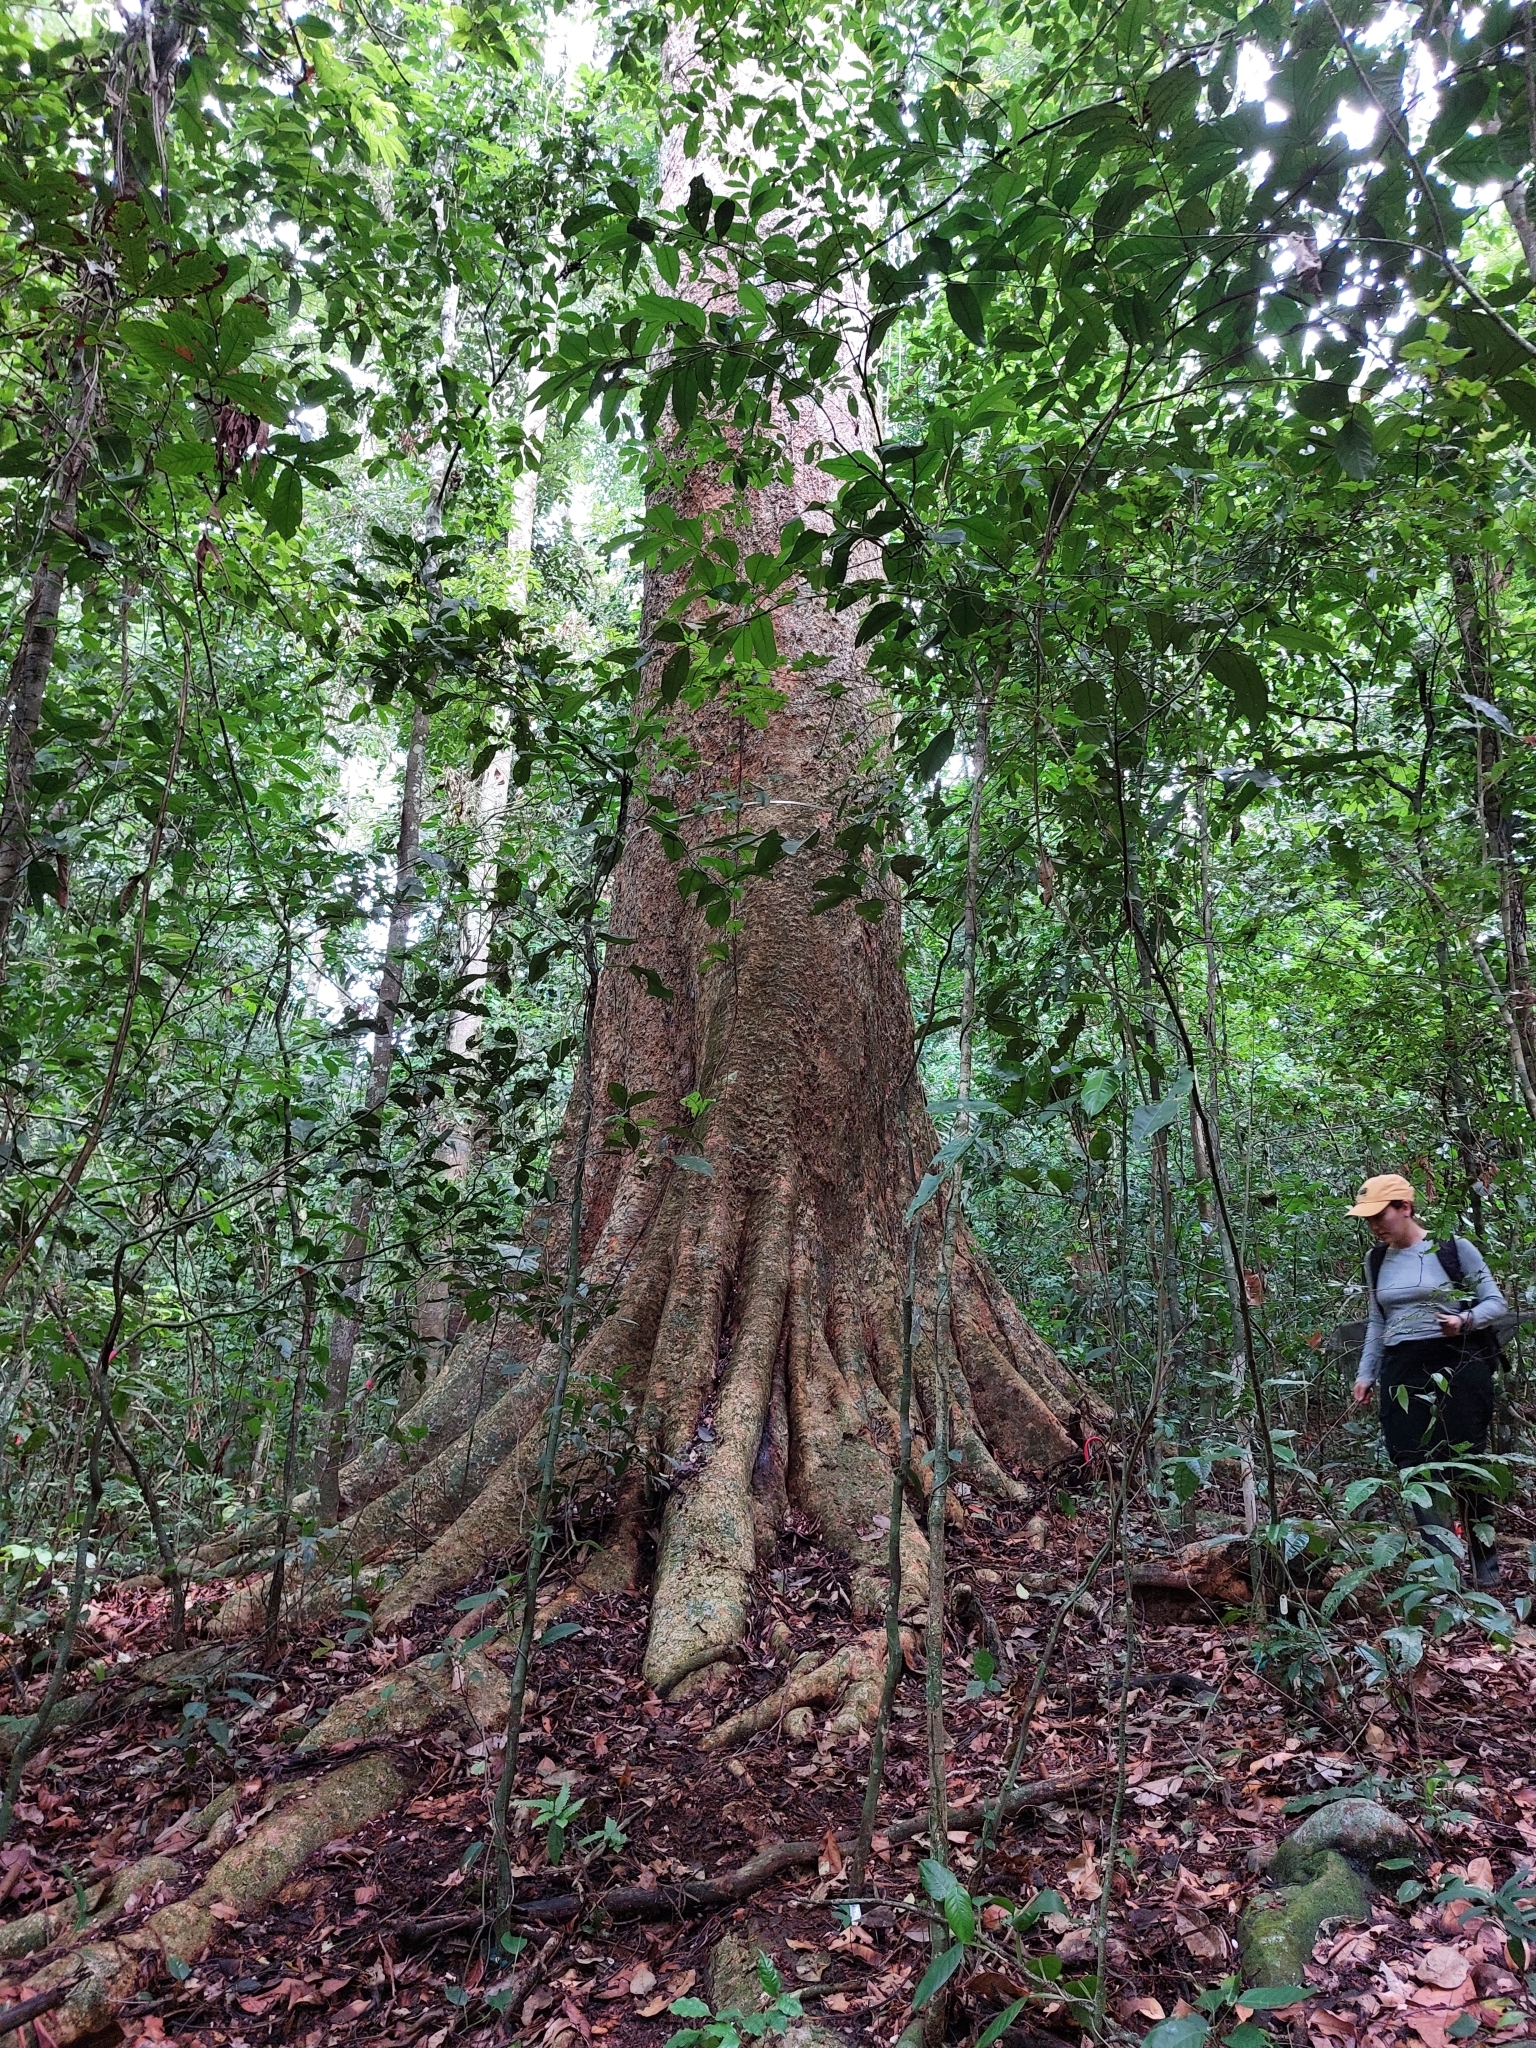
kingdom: Plantae
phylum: Tracheophyta
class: Magnoliopsida
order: Fabales
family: Fabaceae
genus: Dipteryx
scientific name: Dipteryx oleifera
